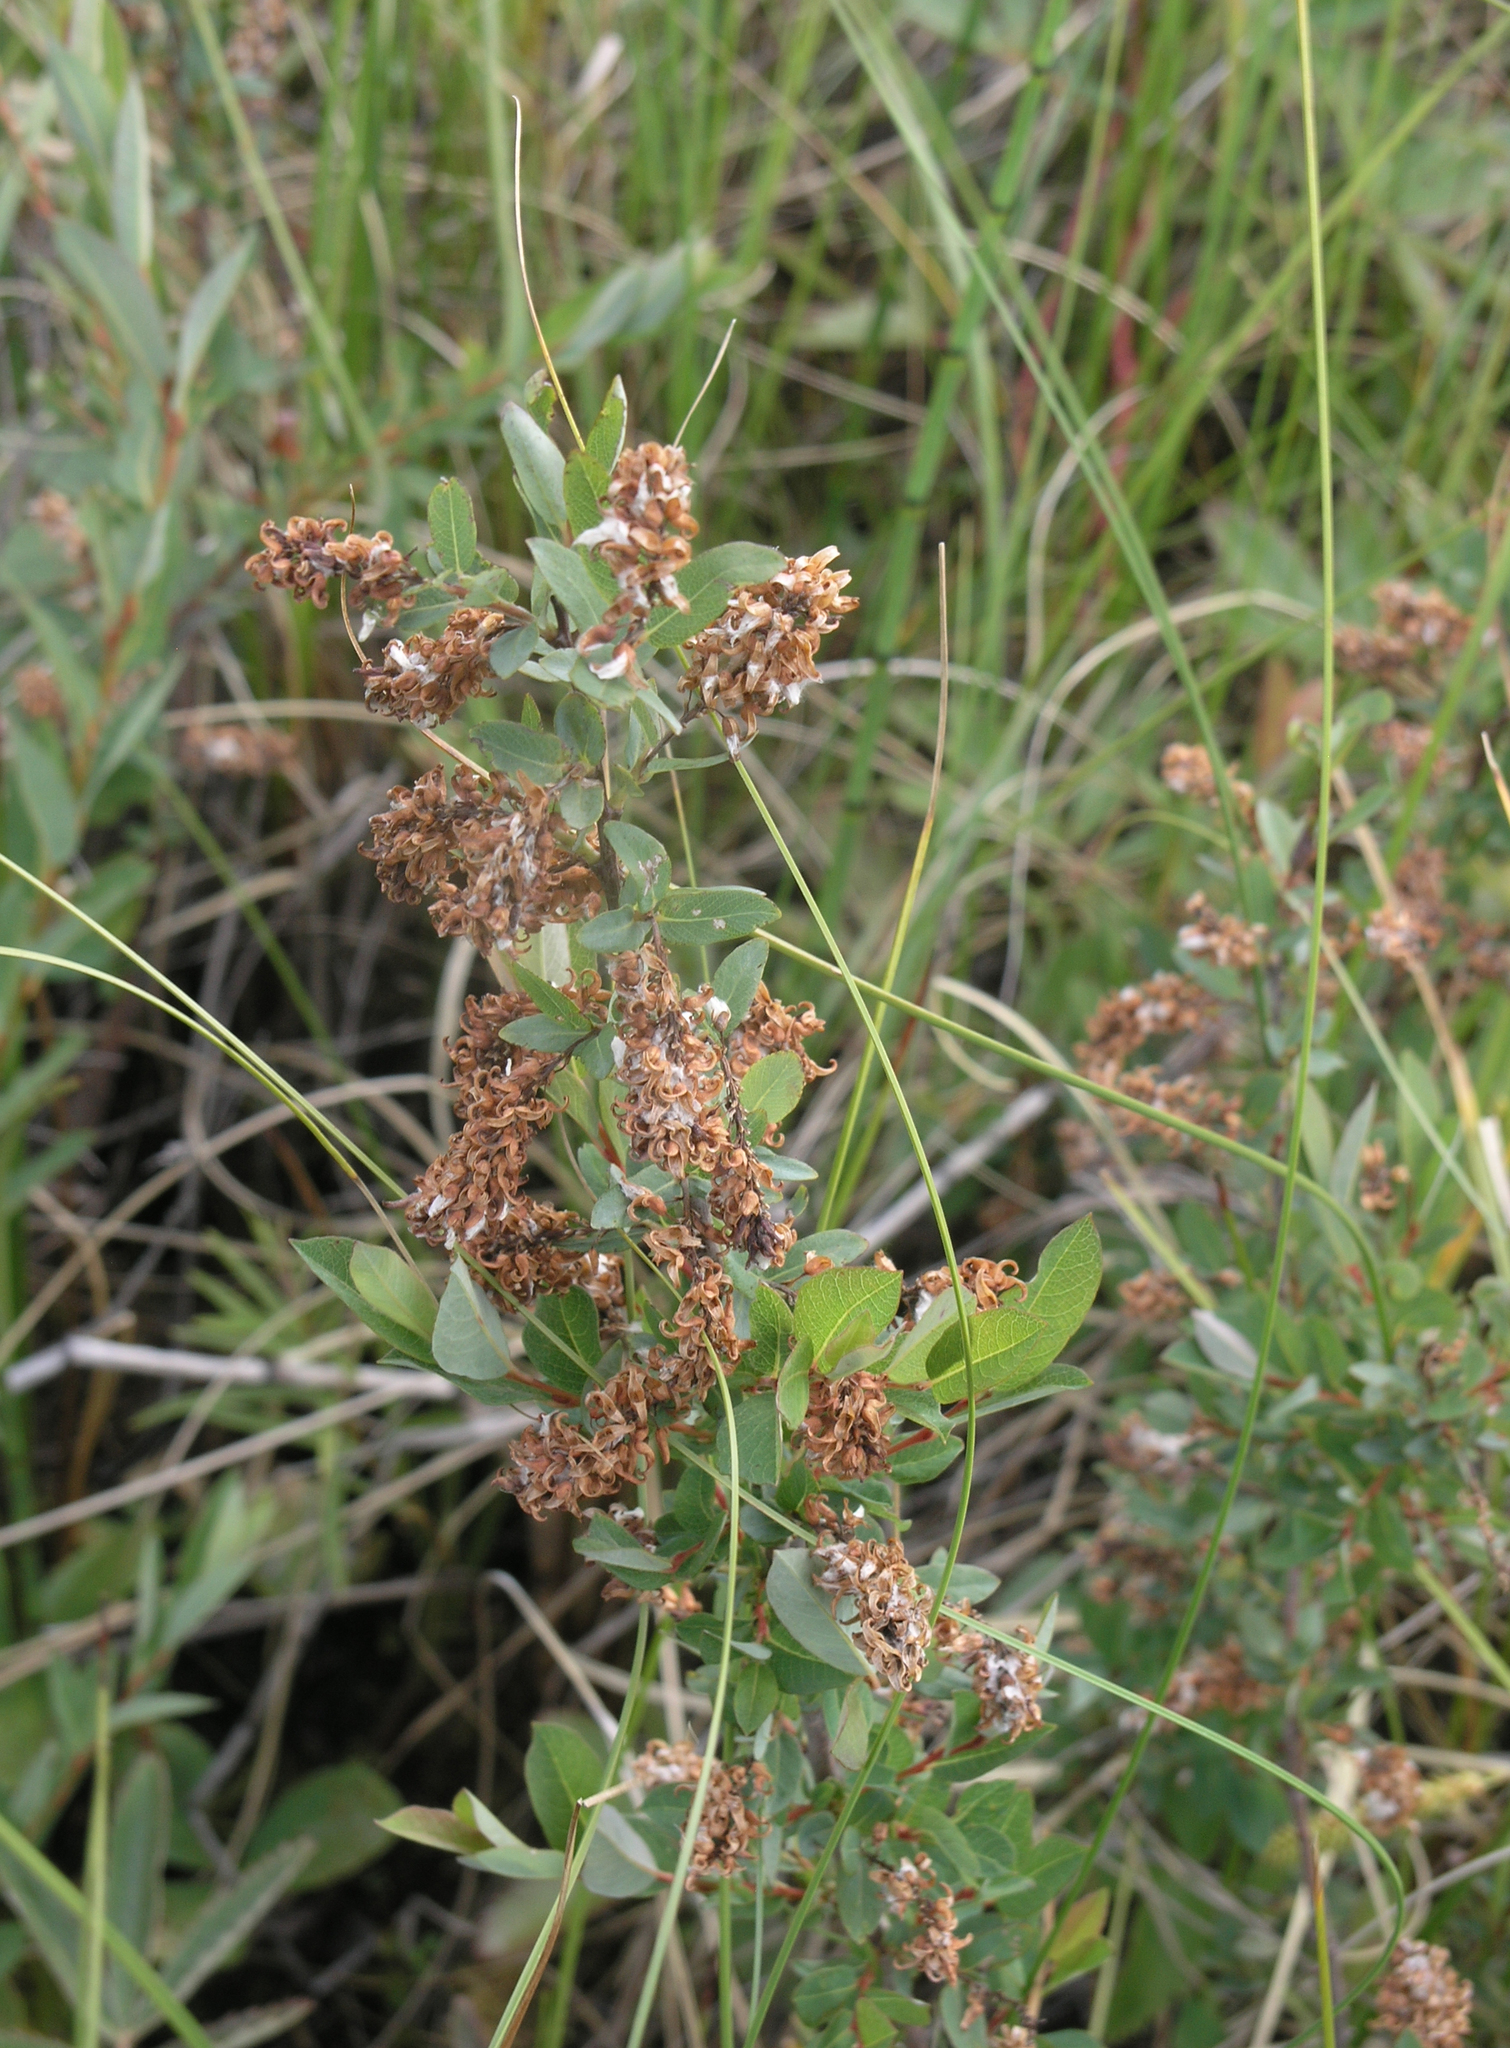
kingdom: Plantae
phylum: Tracheophyta
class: Magnoliopsida
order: Malpighiales
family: Salicaceae
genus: Salix
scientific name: Salix myrtilloides
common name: Myrtle-leaved willow
